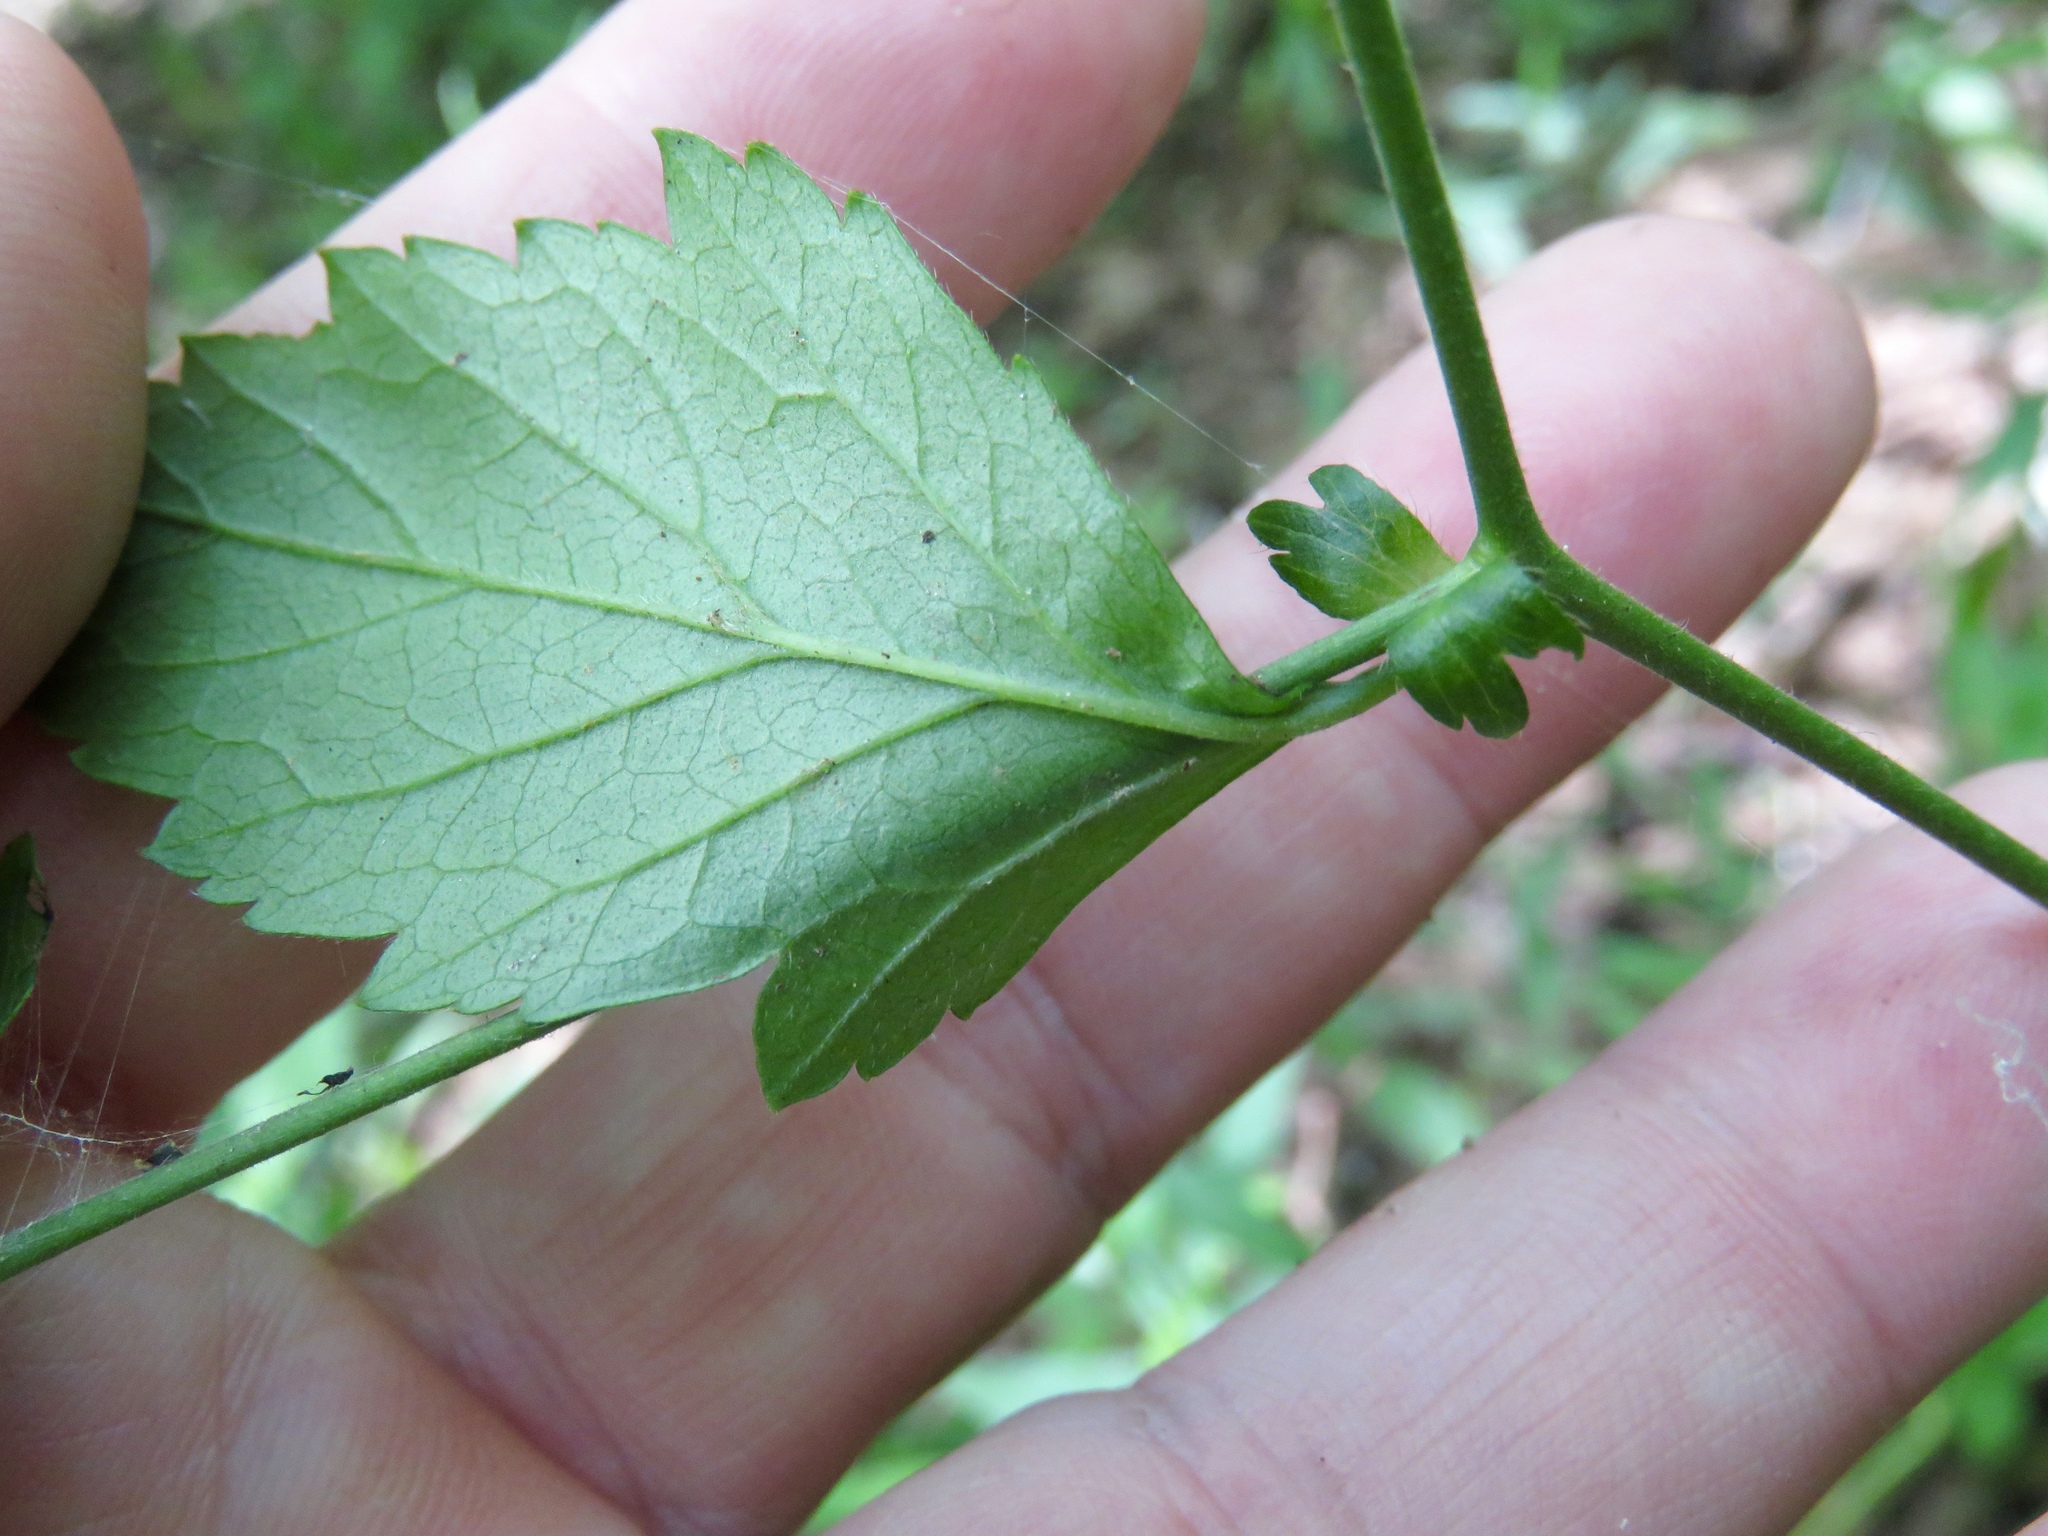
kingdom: Plantae
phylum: Tracheophyta
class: Magnoliopsida
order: Rosales
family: Rosaceae
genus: Geum
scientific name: Geum canadense
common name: White avens
